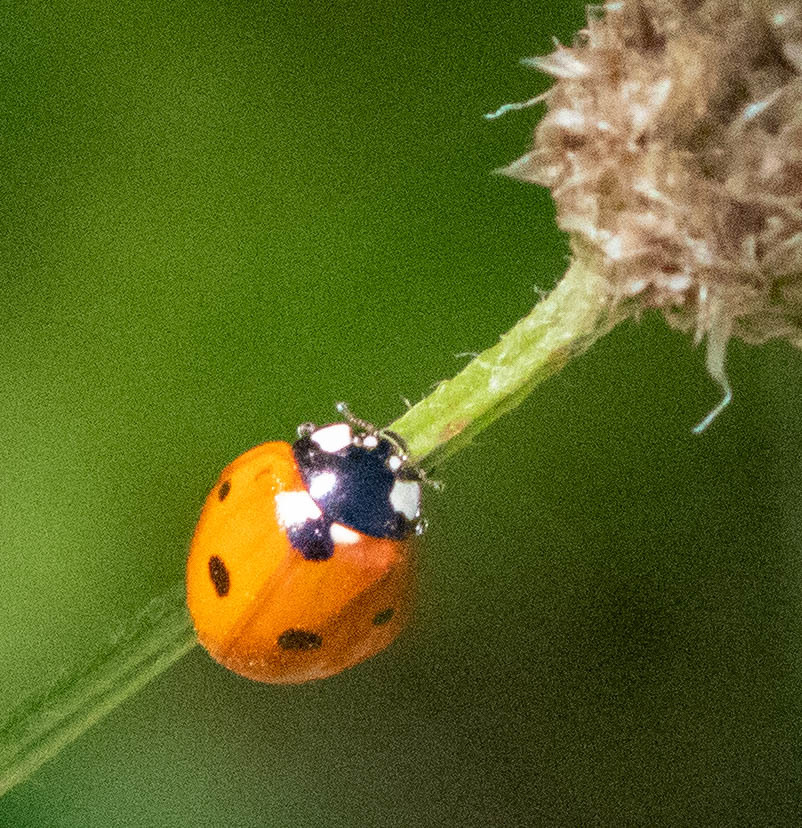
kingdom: Animalia
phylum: Arthropoda
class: Insecta
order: Coleoptera
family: Coccinellidae
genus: Coccinella
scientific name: Coccinella septempunctata
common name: Sevenspotted lady beetle
